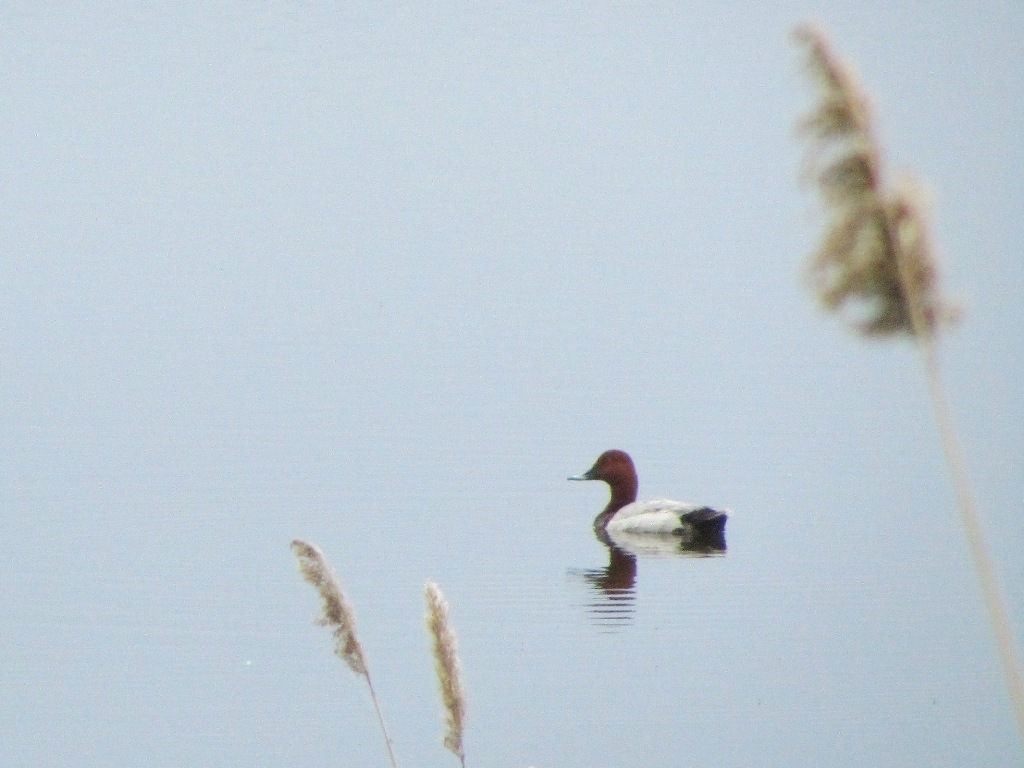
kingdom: Animalia
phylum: Chordata
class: Aves
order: Anseriformes
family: Anatidae
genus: Aythya
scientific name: Aythya ferina
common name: Common pochard
